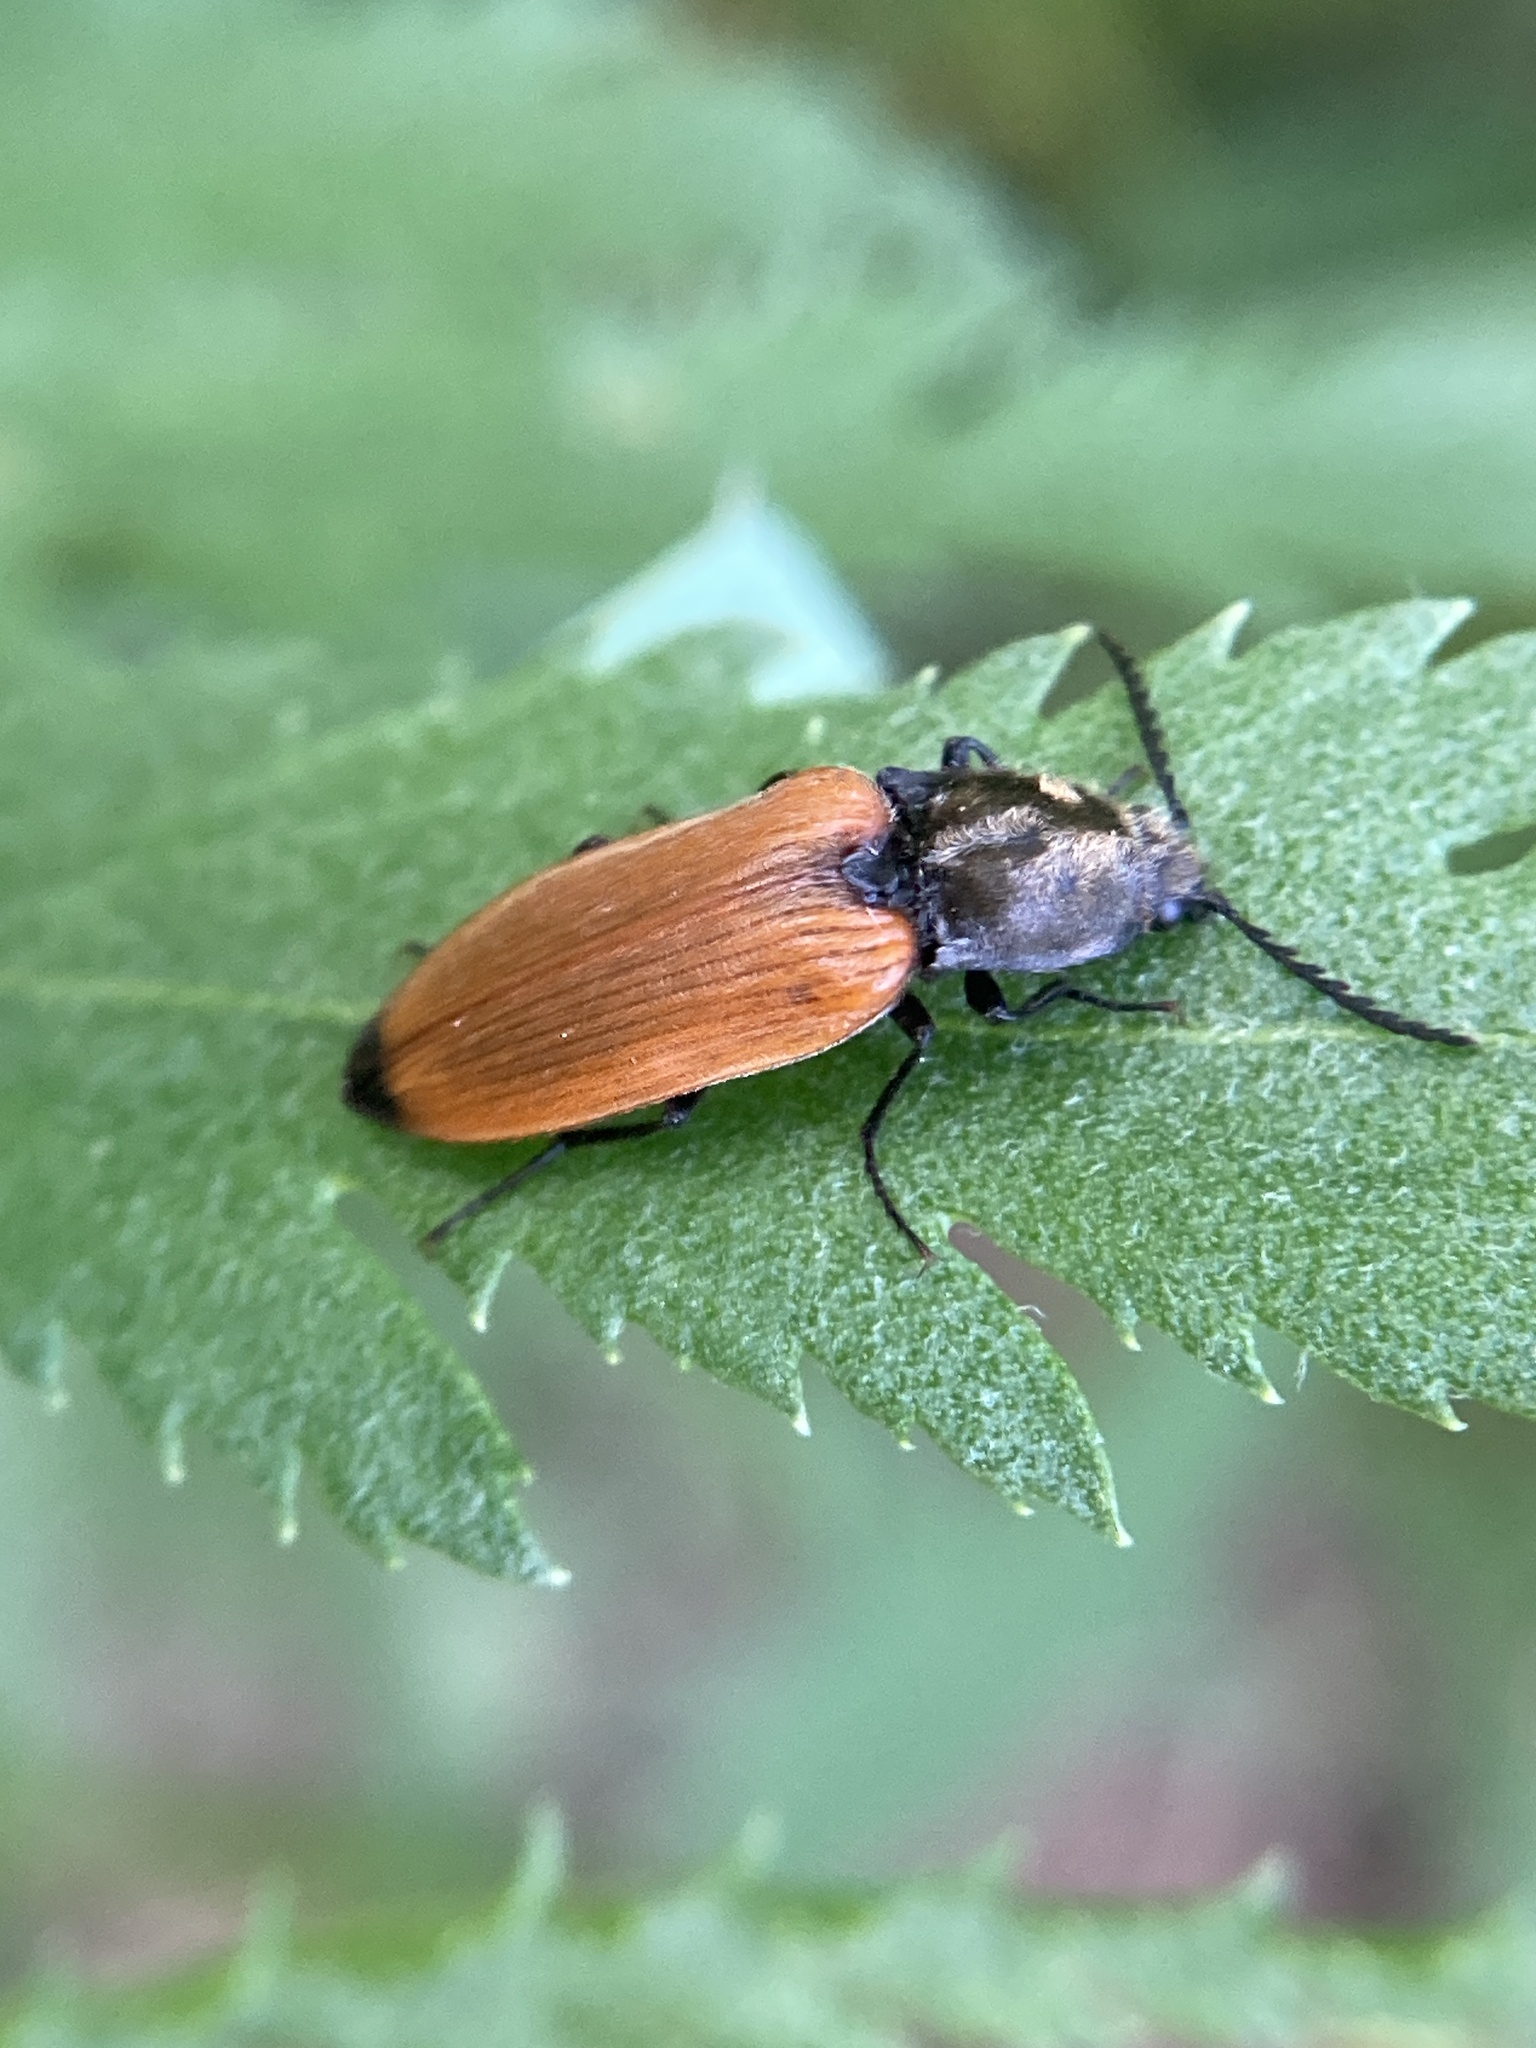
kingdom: Animalia
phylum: Arthropoda
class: Insecta
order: Coleoptera
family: Elateridae
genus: Anostirus
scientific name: Anostirus castaneus
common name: Chestnut coloured click beetle
